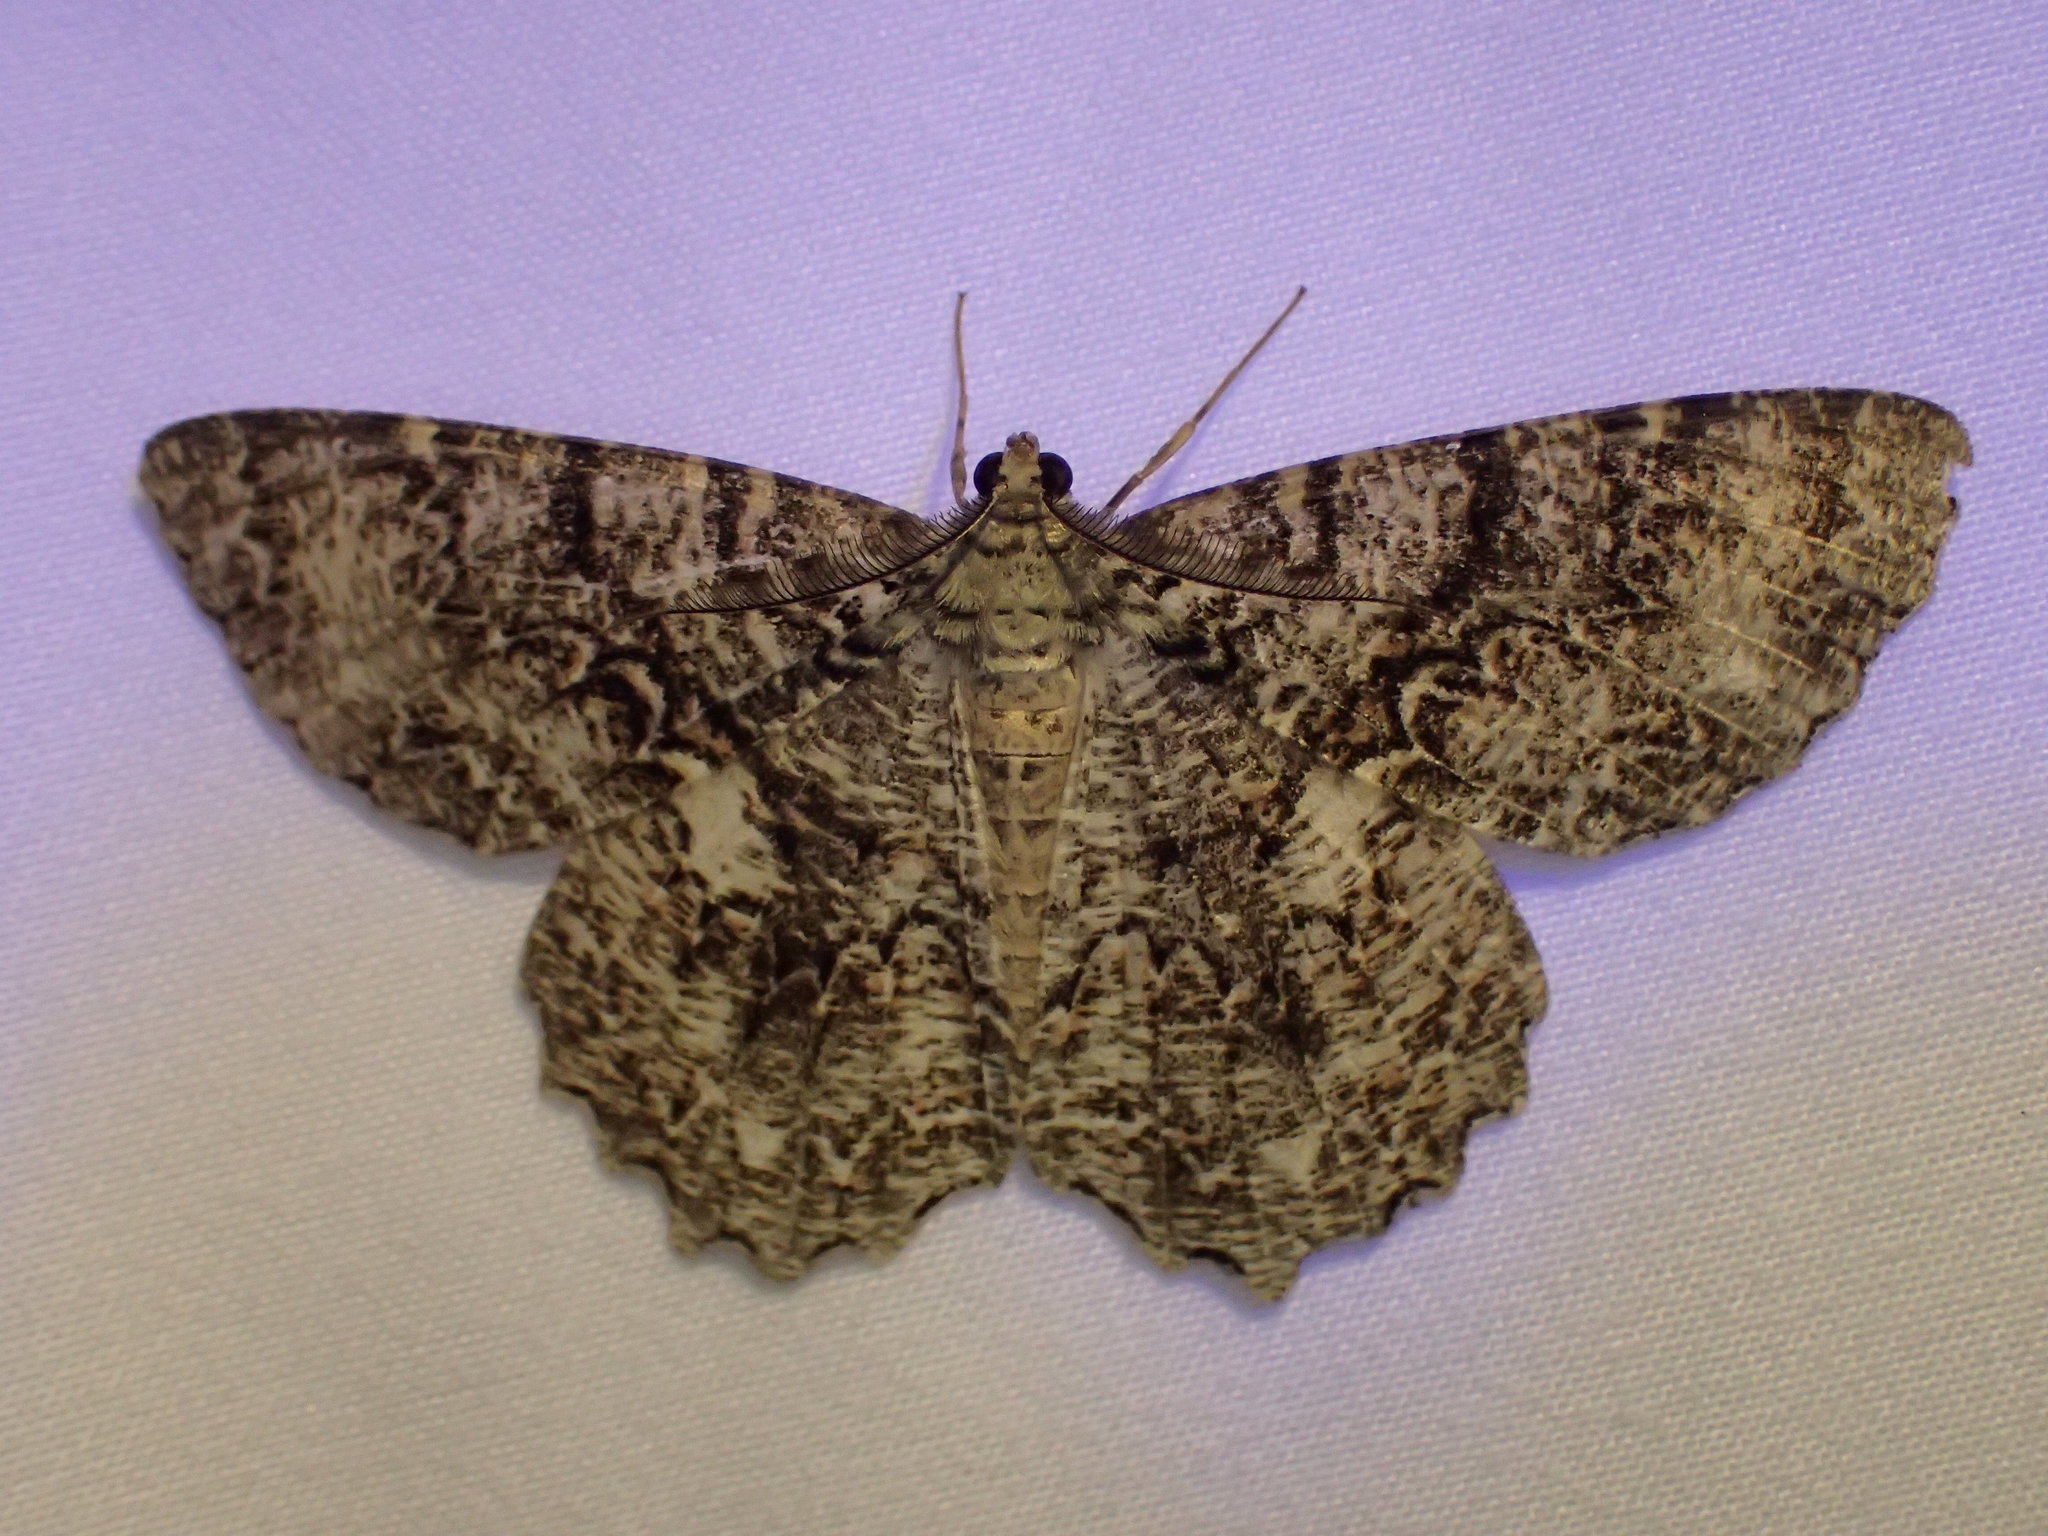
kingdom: Animalia
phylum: Arthropoda
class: Insecta
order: Lepidoptera
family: Geometridae
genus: Epimecis
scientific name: Epimecis hortaria
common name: Tulip-tree beauty
